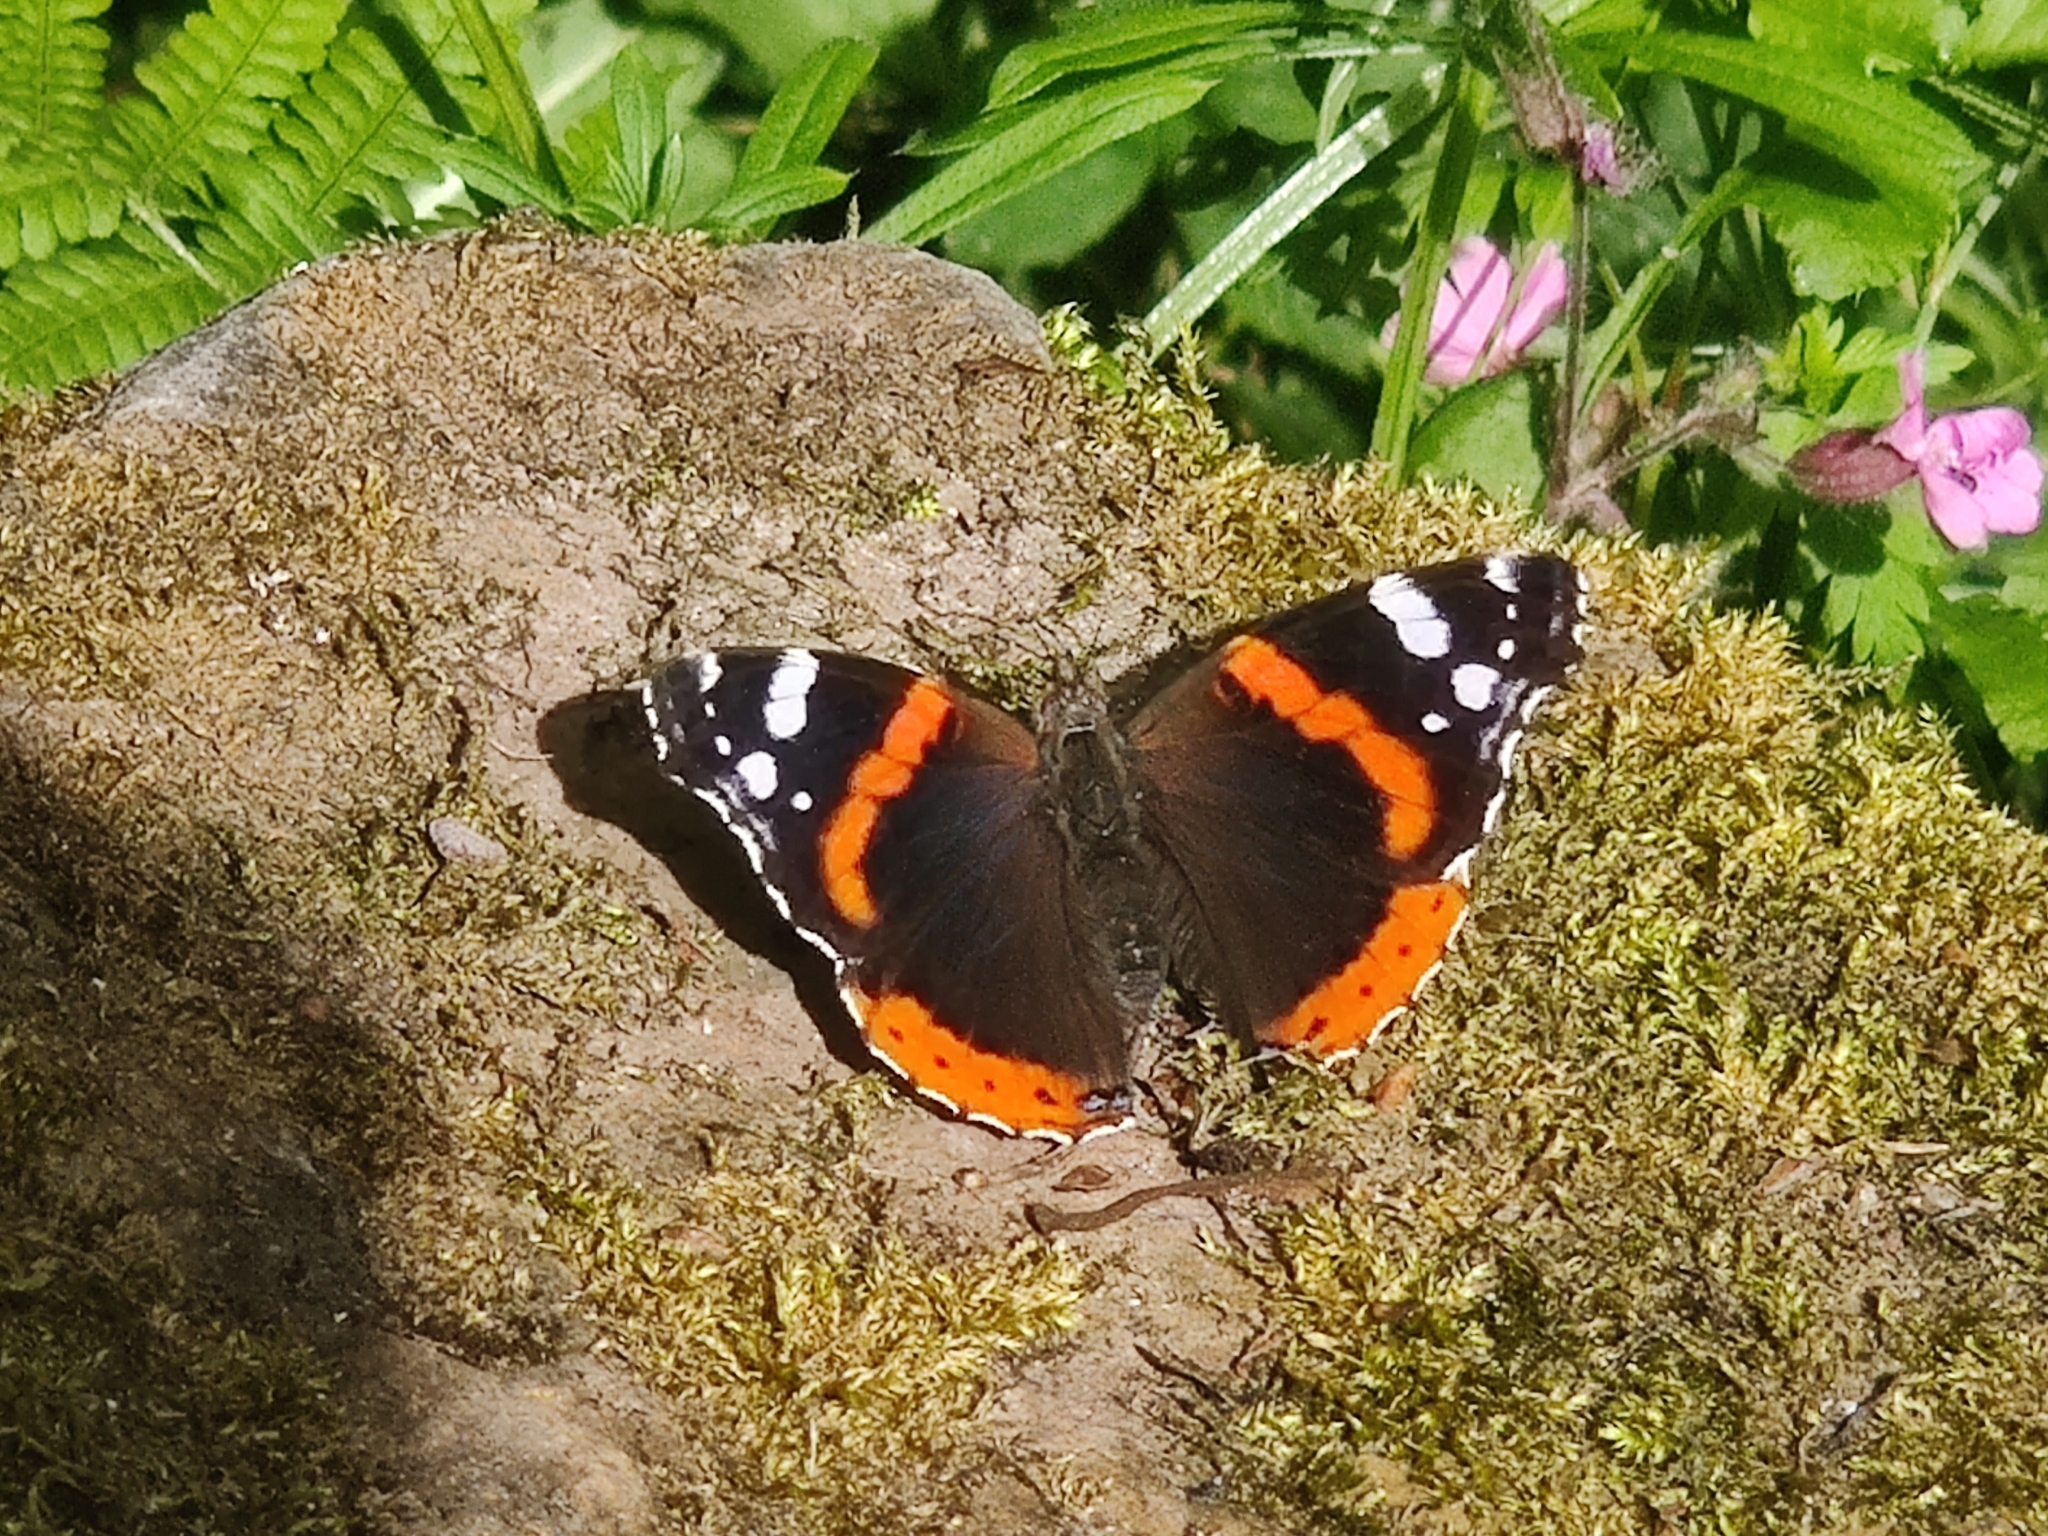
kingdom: Animalia
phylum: Arthropoda
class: Insecta
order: Lepidoptera
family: Nymphalidae
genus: Vanessa
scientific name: Vanessa atalanta
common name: Red admiral
